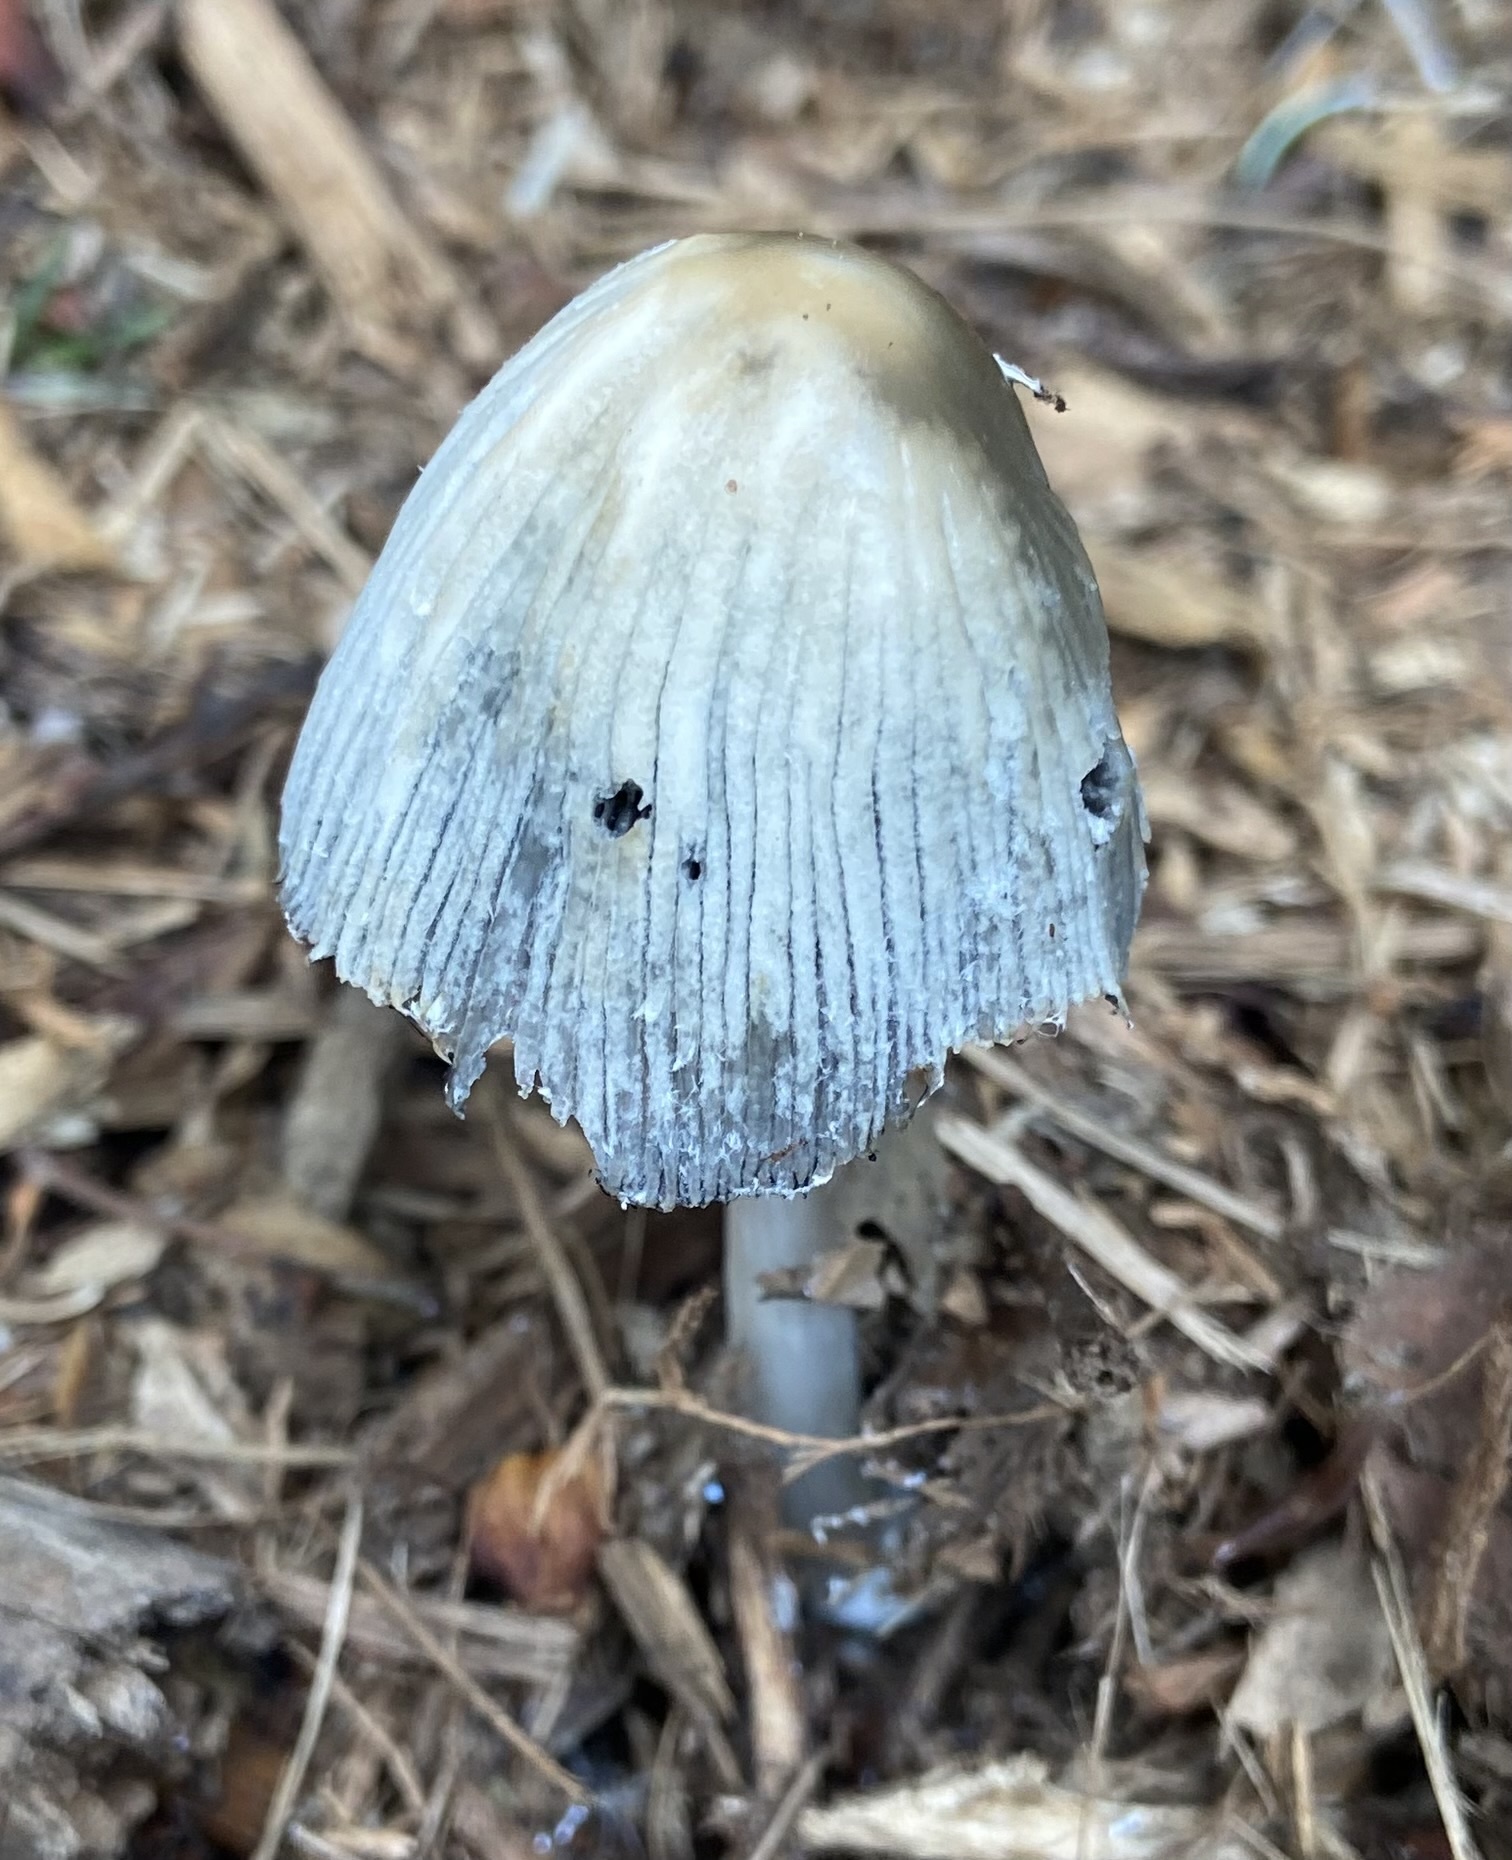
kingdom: Fungi
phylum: Basidiomycota
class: Agaricomycetes
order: Agaricales
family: Psathyrellaceae
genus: Coprinellus
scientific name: Coprinellus flocculosus
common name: Flocculose inkcap
